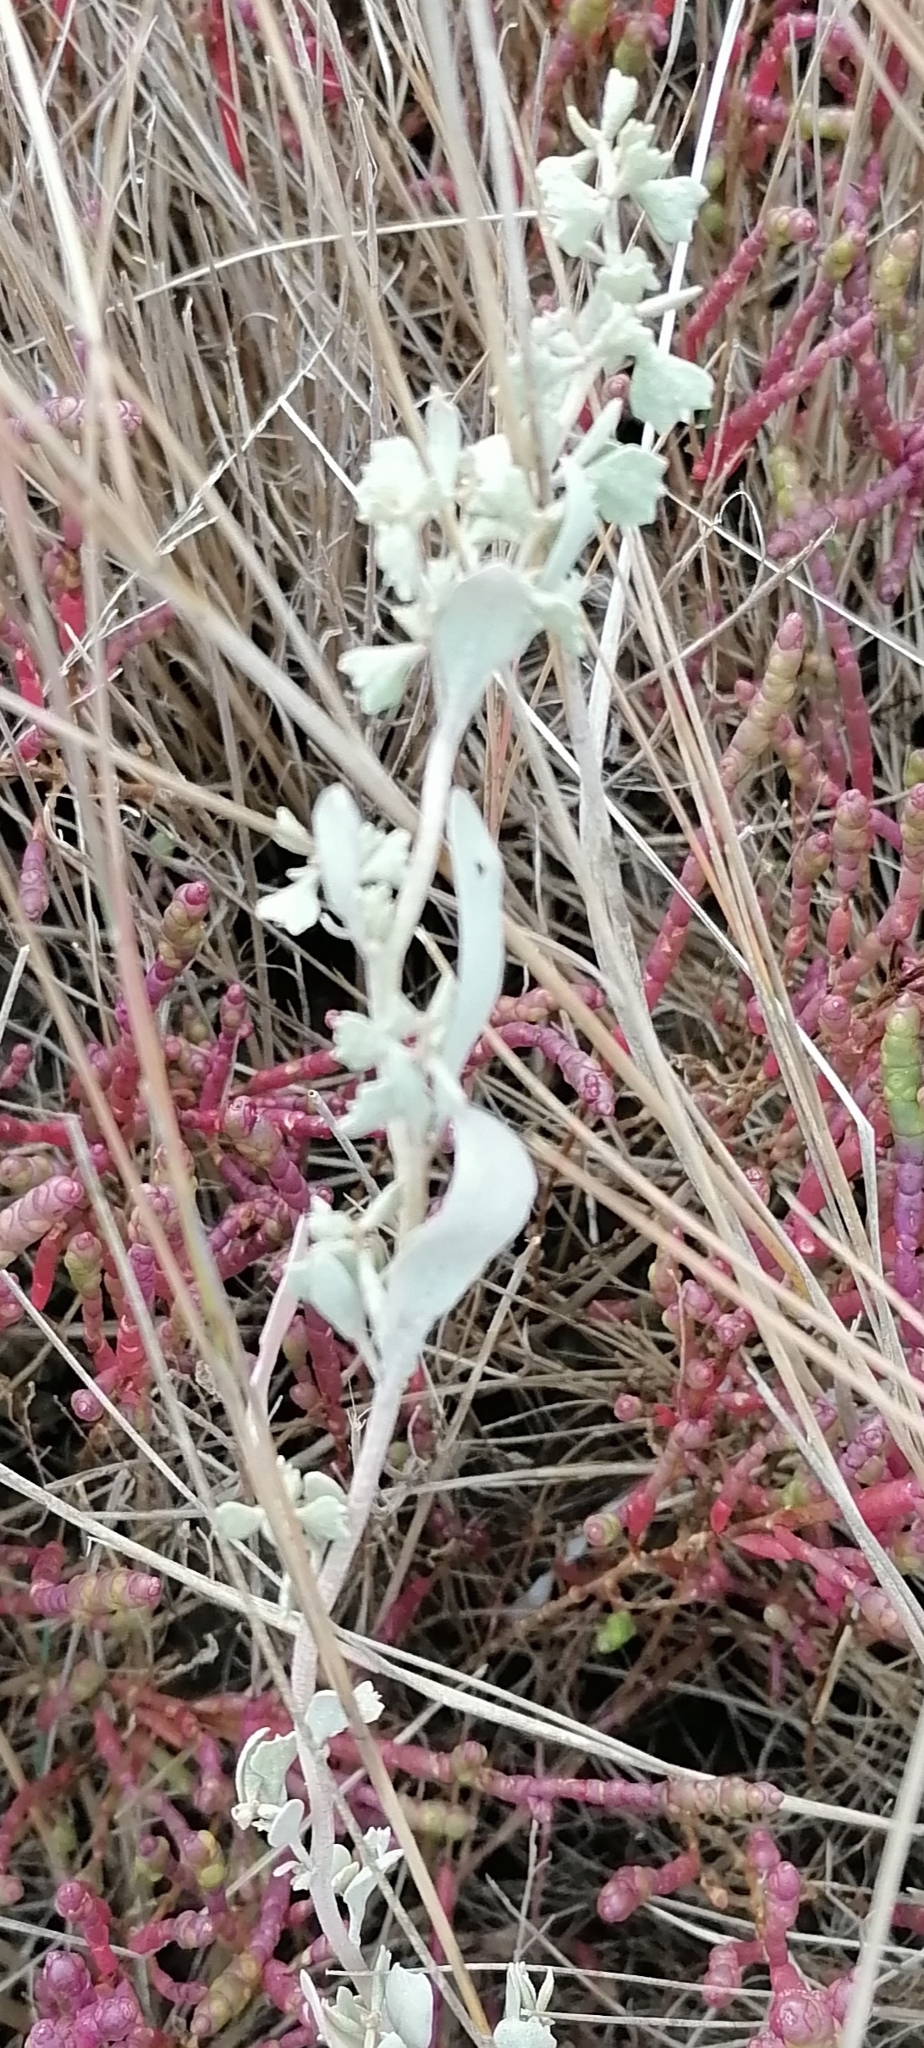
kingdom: Plantae
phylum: Tracheophyta
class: Magnoliopsida
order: Caryophyllales
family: Amaranthaceae
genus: Halimione
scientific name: Halimione pedunculata
